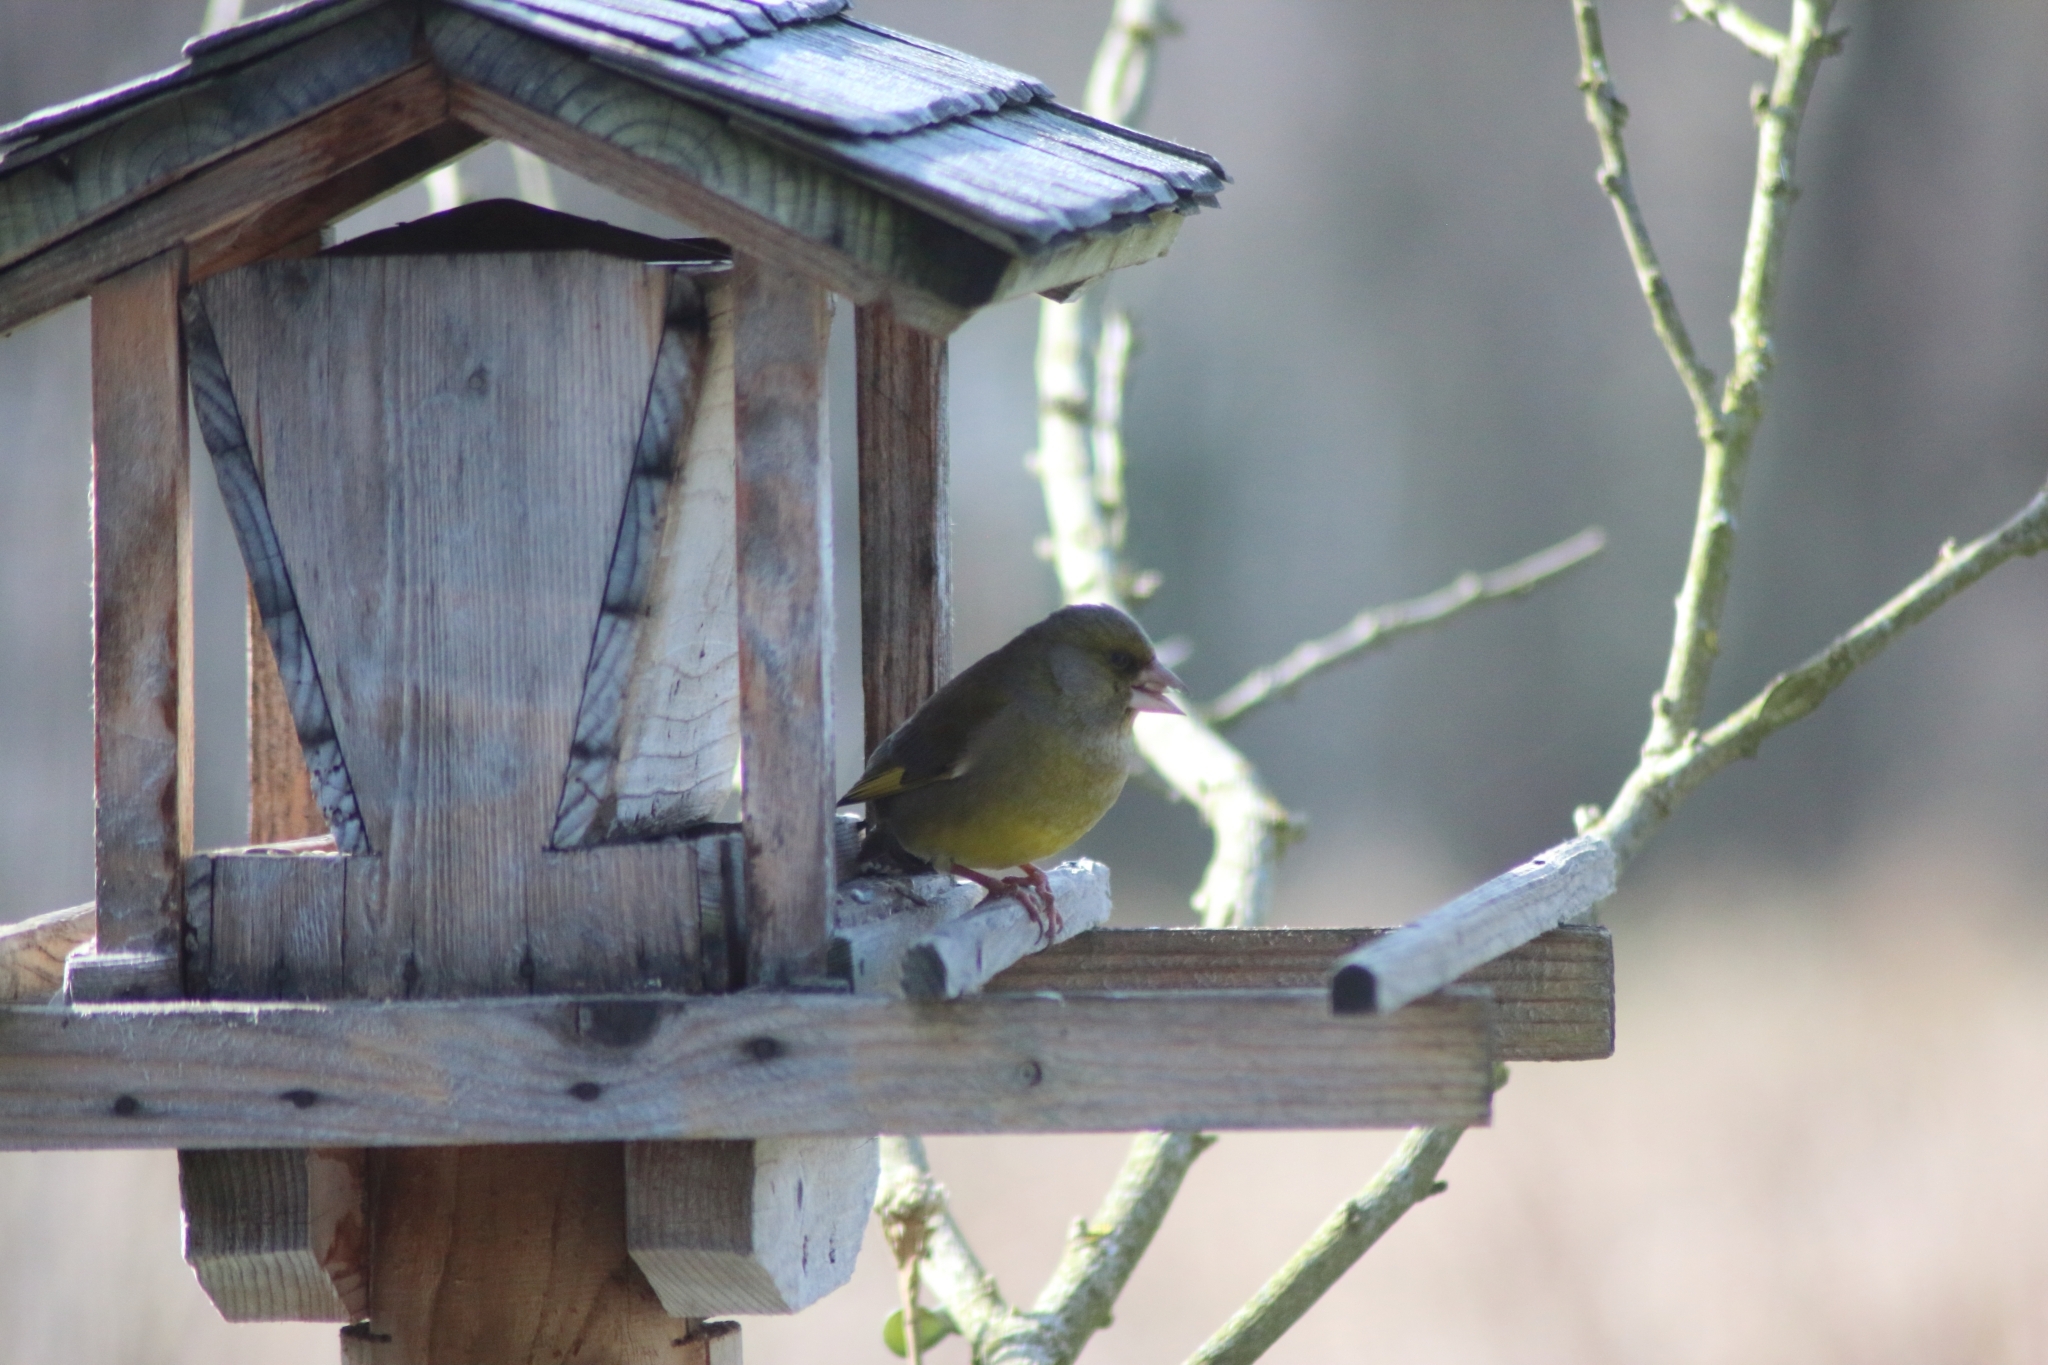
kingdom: Plantae
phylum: Tracheophyta
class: Liliopsida
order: Poales
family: Poaceae
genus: Chloris
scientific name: Chloris chloris
